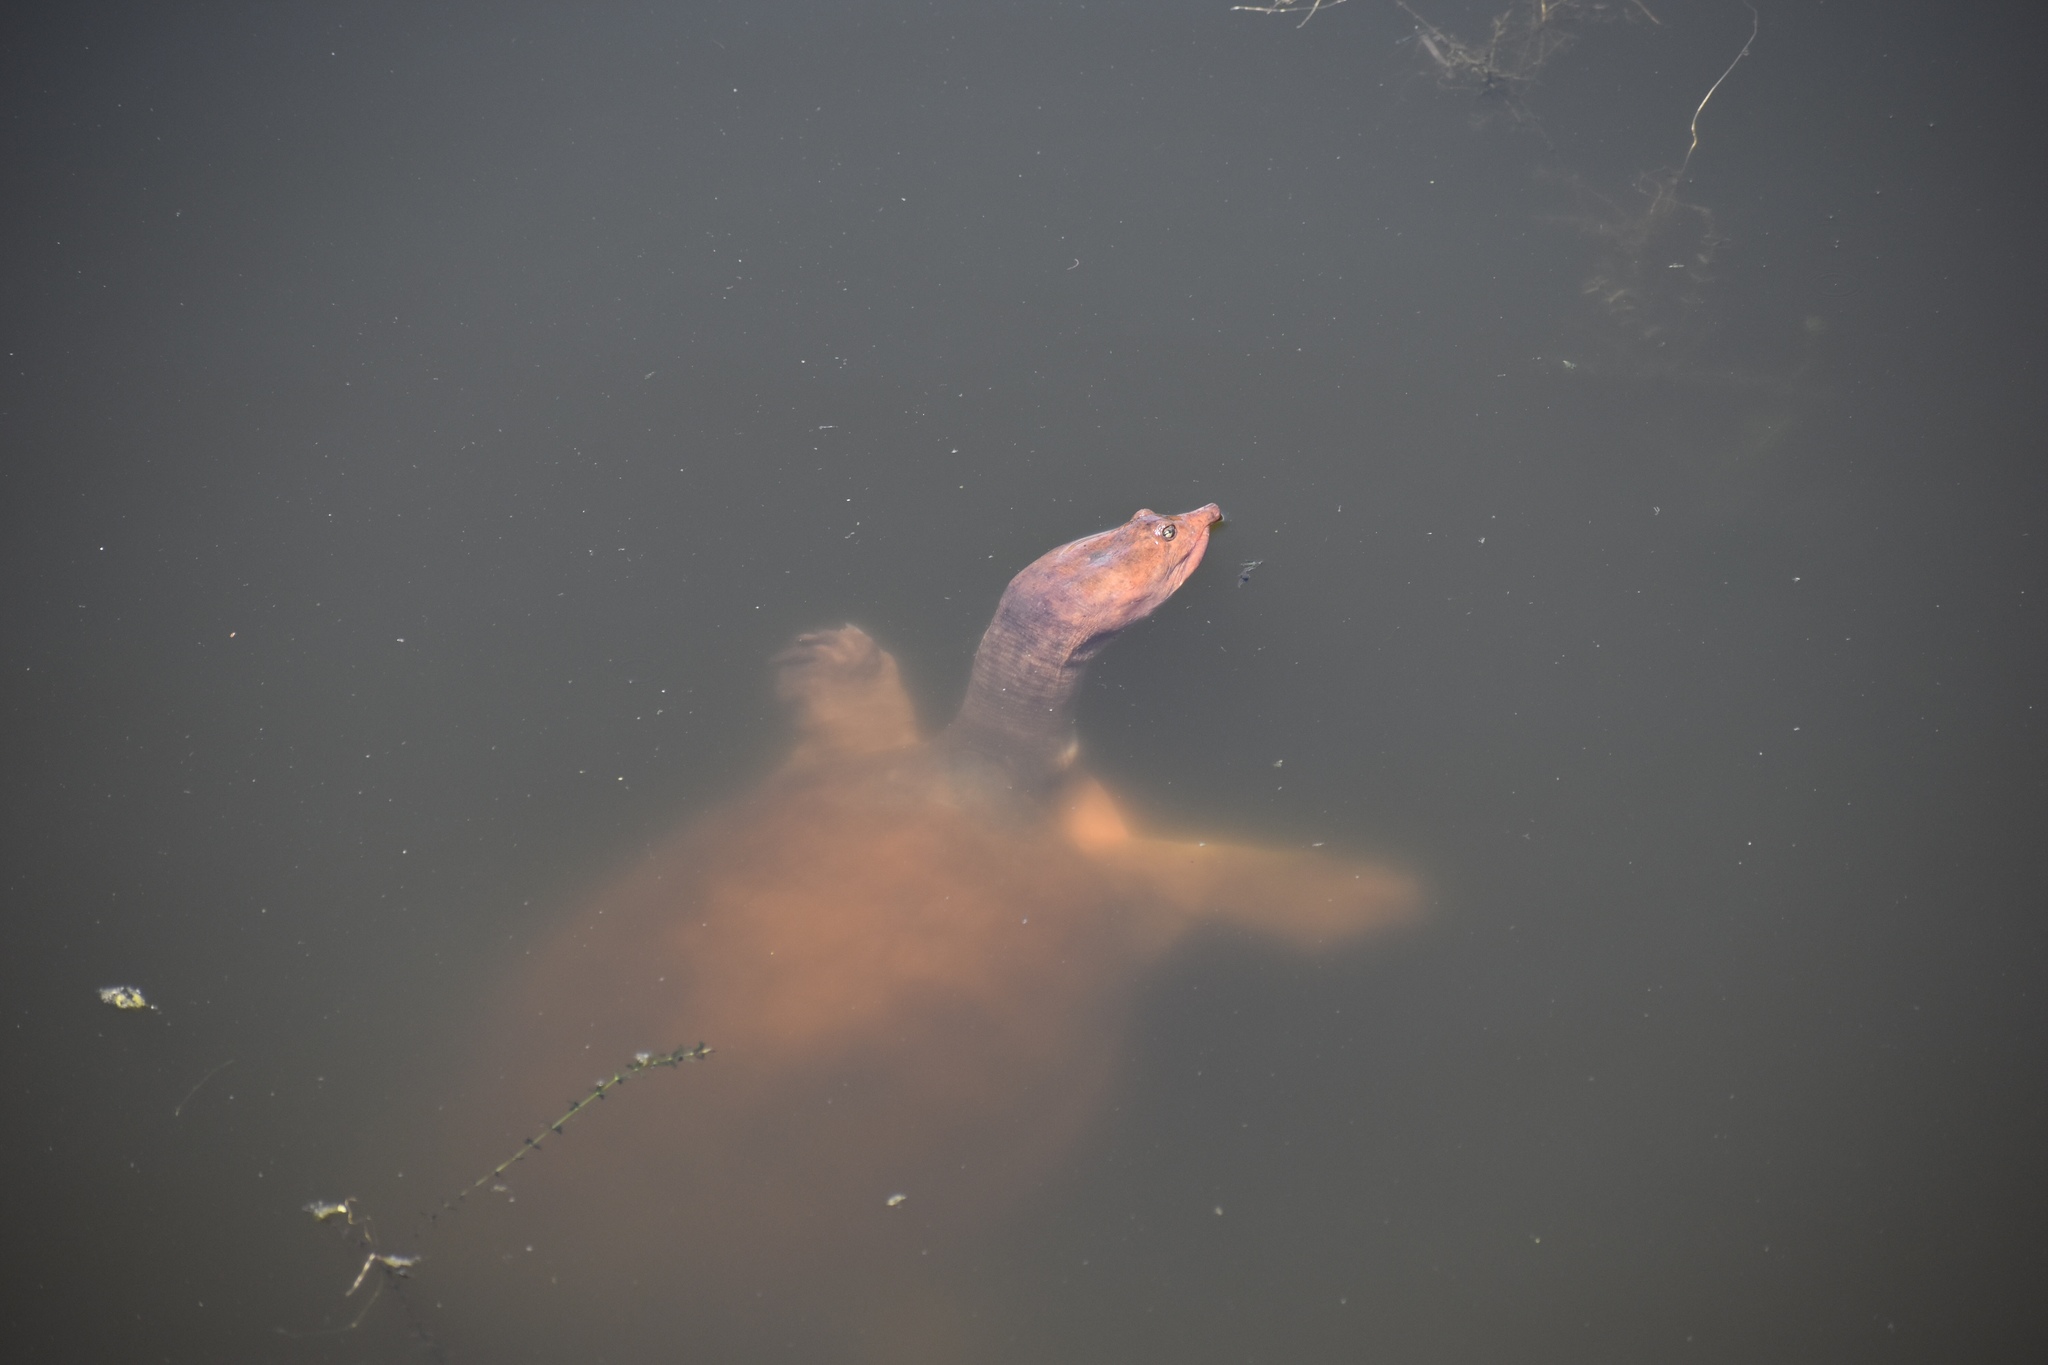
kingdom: Animalia
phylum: Chordata
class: Testudines
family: Trionychidae
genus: Apalone
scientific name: Apalone ferox
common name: Florida softshell turtle
